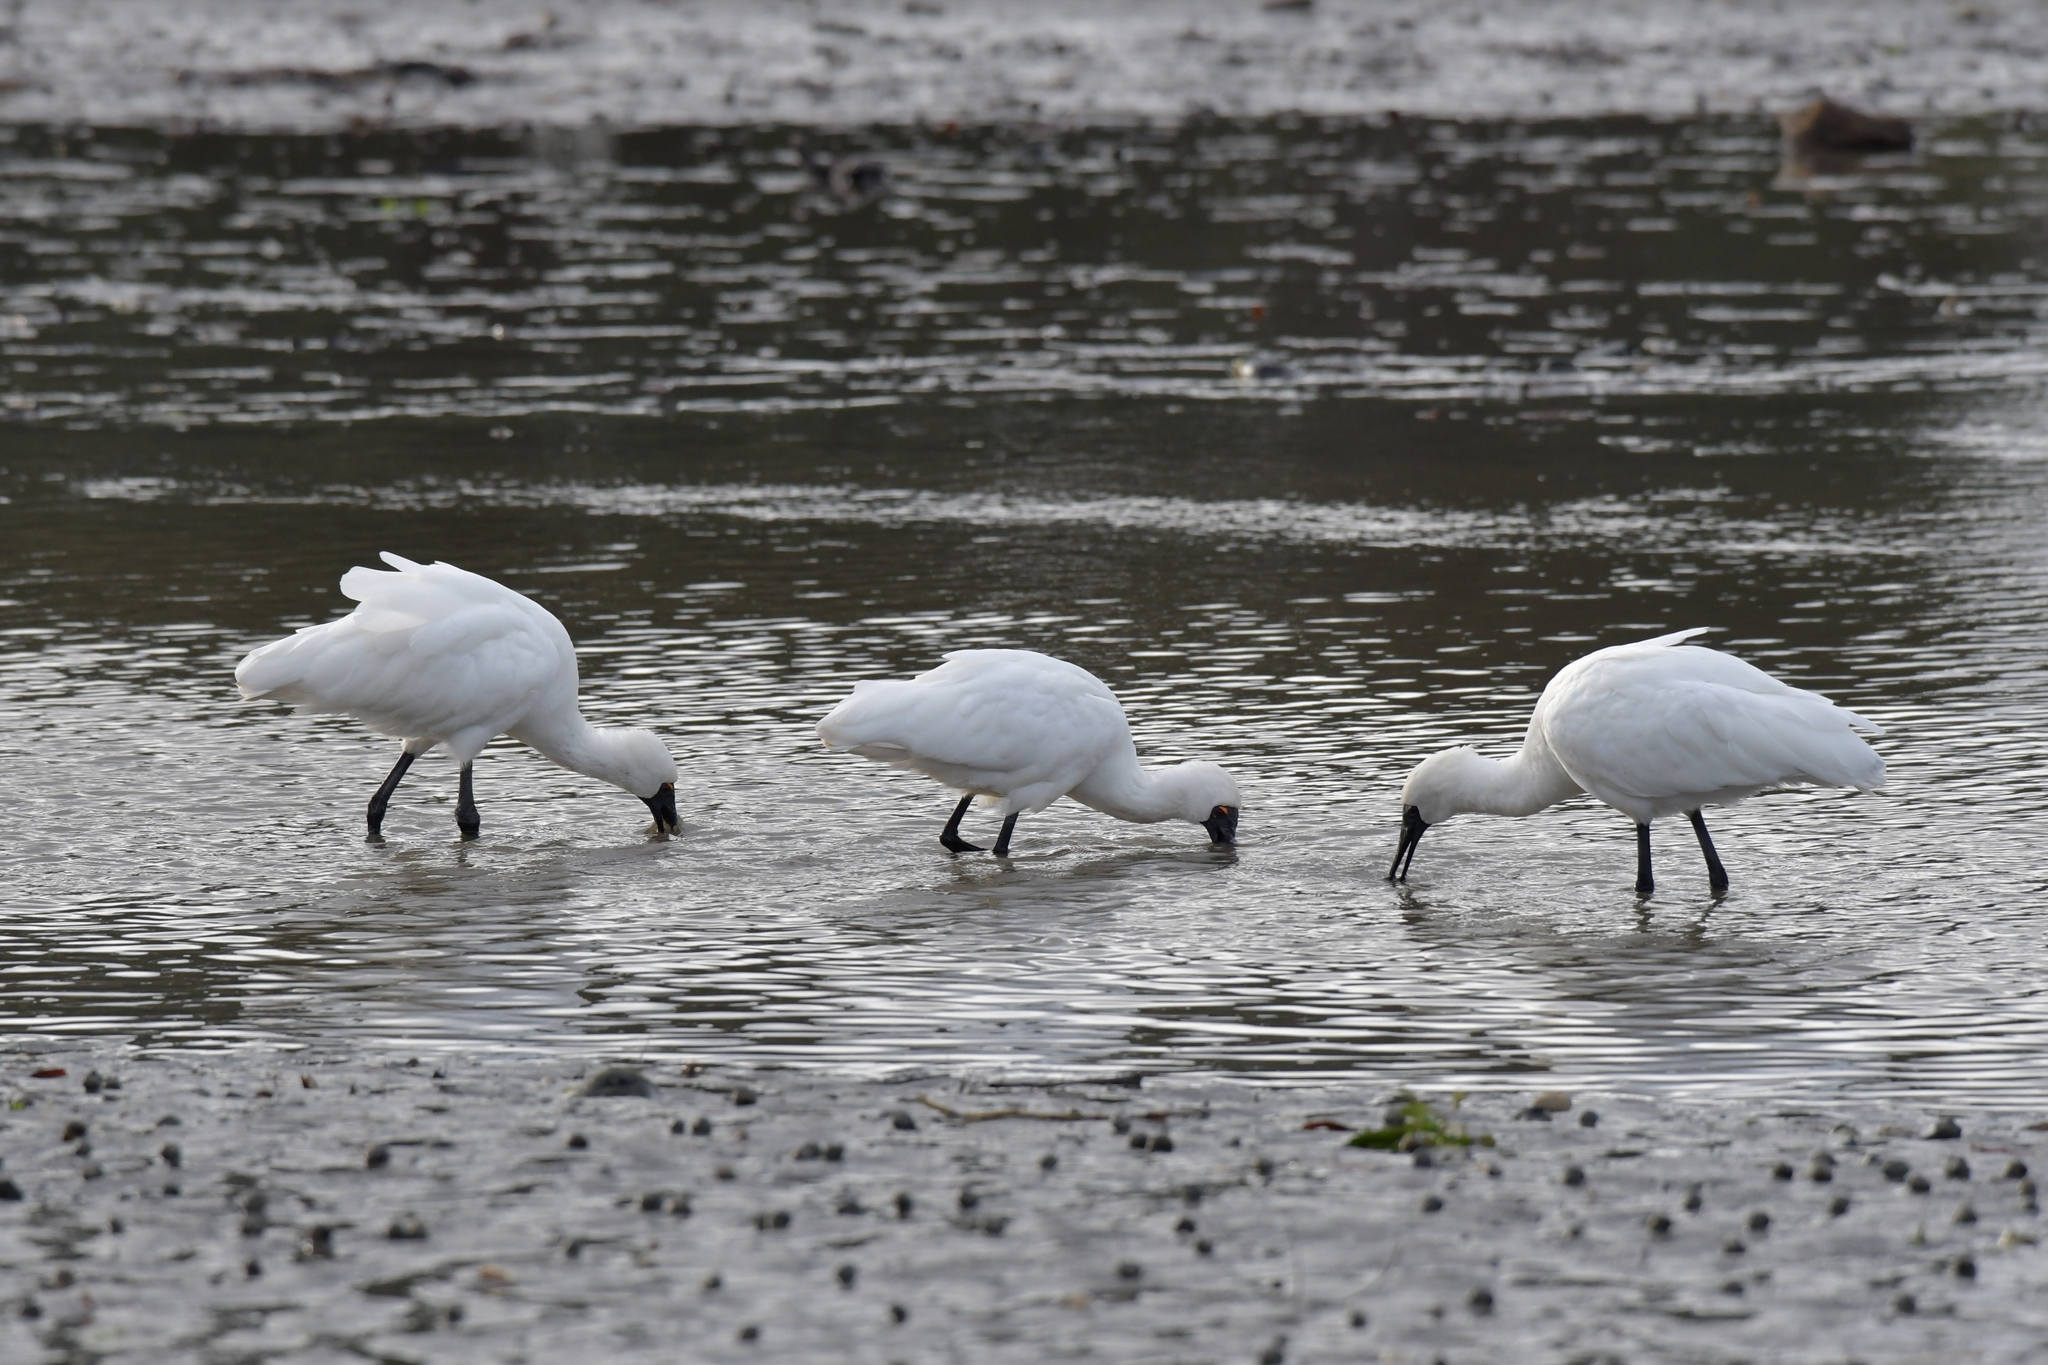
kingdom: Animalia
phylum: Chordata
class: Aves
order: Pelecaniformes
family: Threskiornithidae
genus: Platalea
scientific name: Platalea regia
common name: Royal spoonbill
